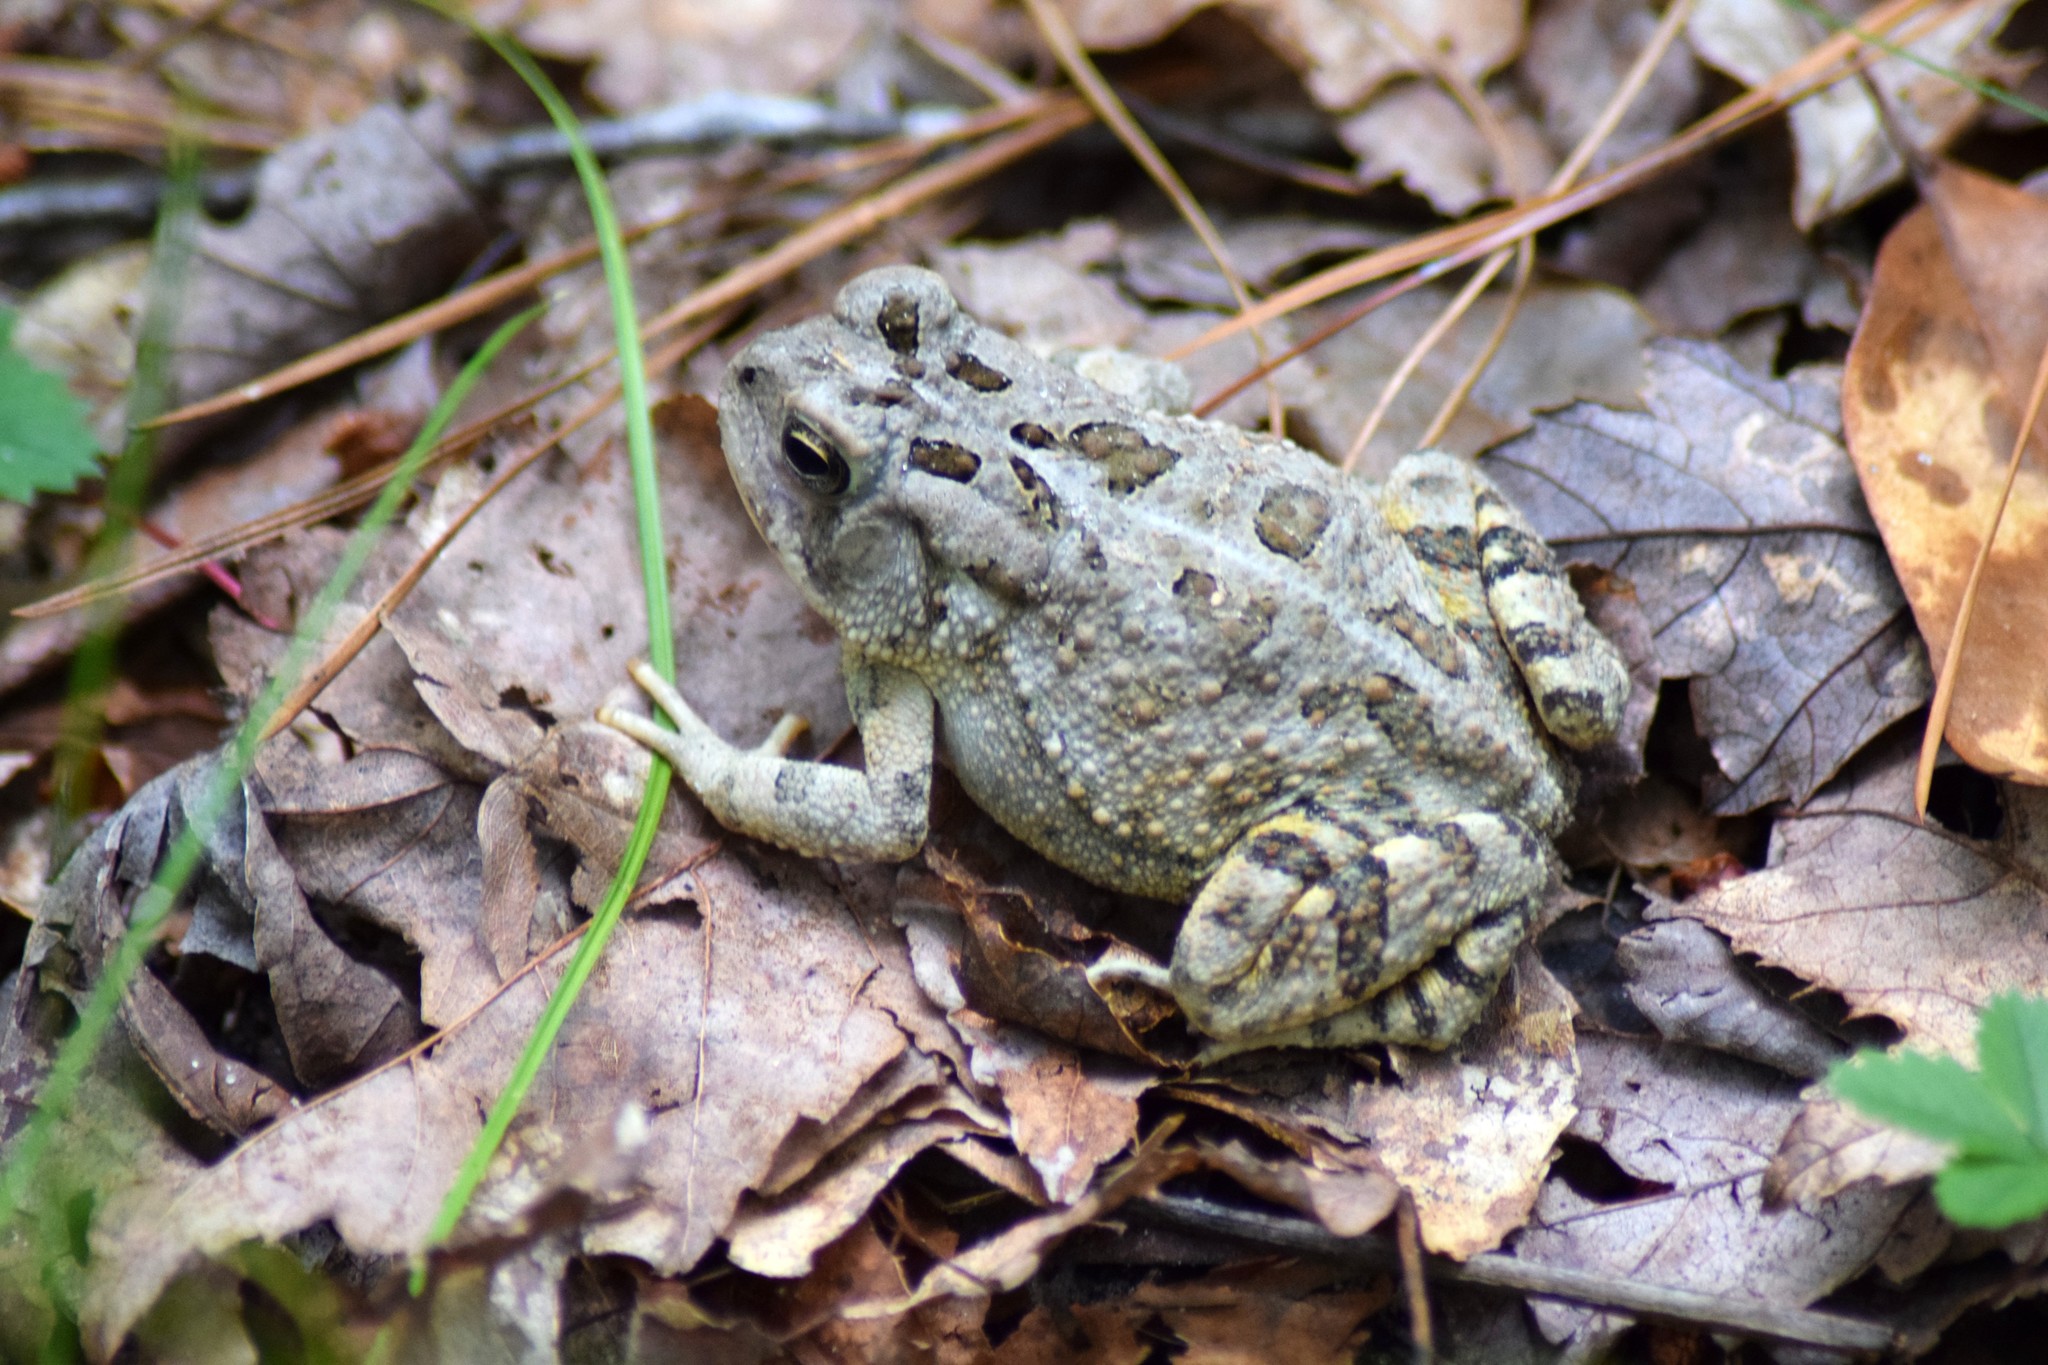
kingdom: Animalia
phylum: Chordata
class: Amphibia
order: Anura
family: Bufonidae
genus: Anaxyrus
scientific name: Anaxyrus fowleri
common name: Fowler's toad
